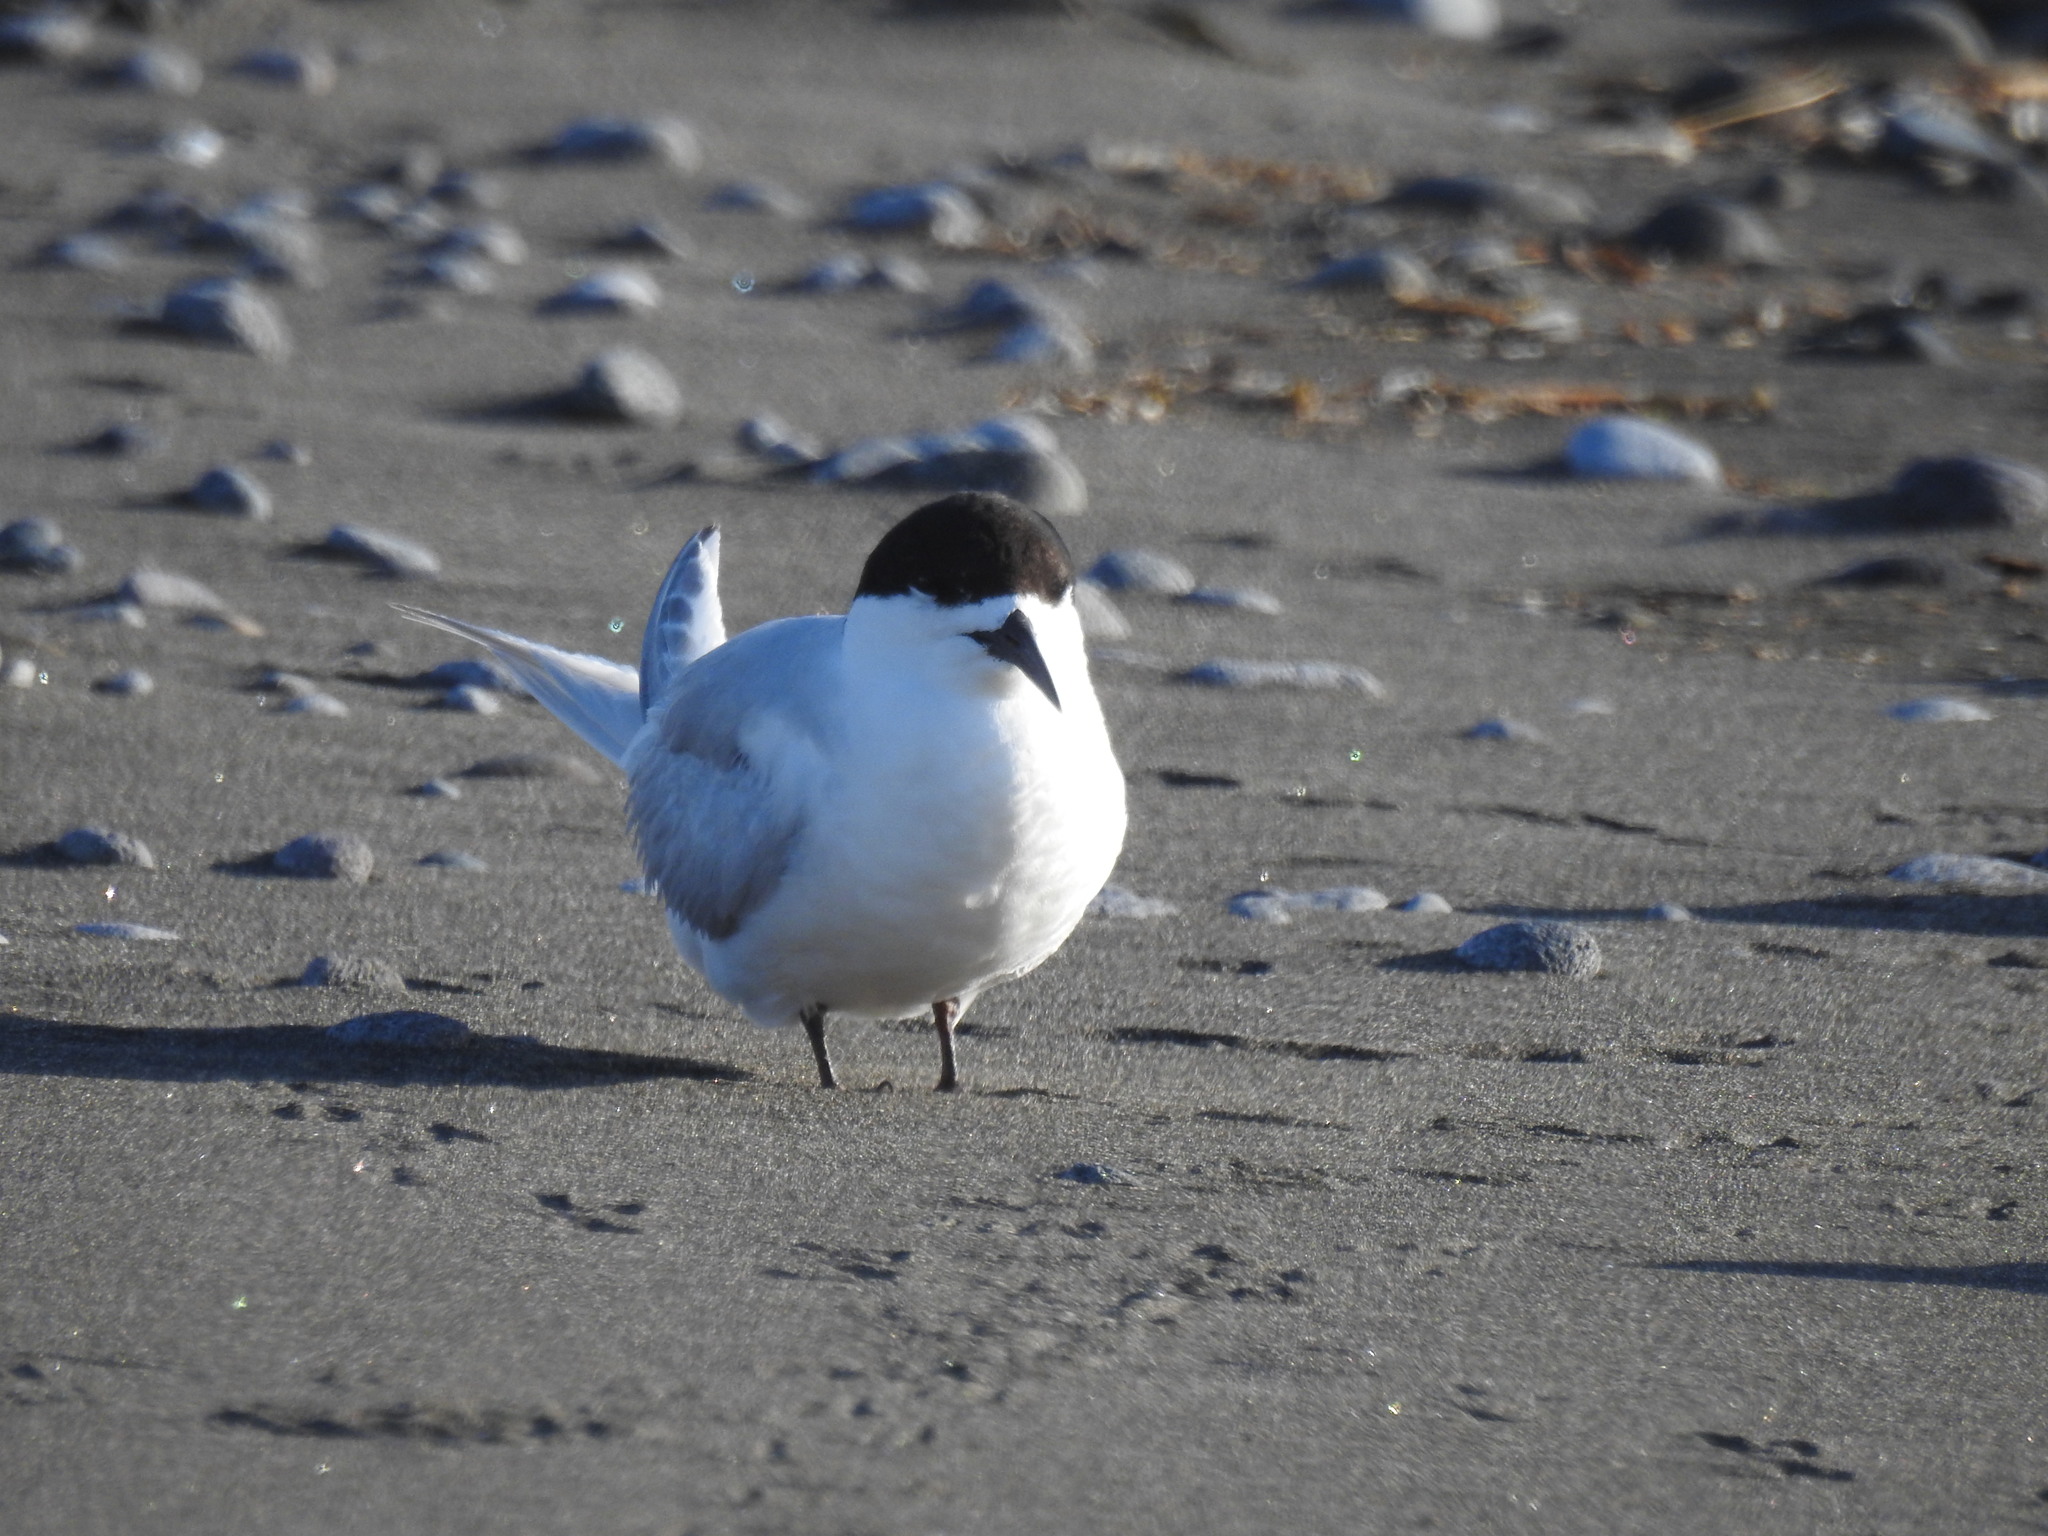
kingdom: Animalia
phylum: Chordata
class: Aves
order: Charadriiformes
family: Laridae
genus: Sterna
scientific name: Sterna striata
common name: White-fronted tern
